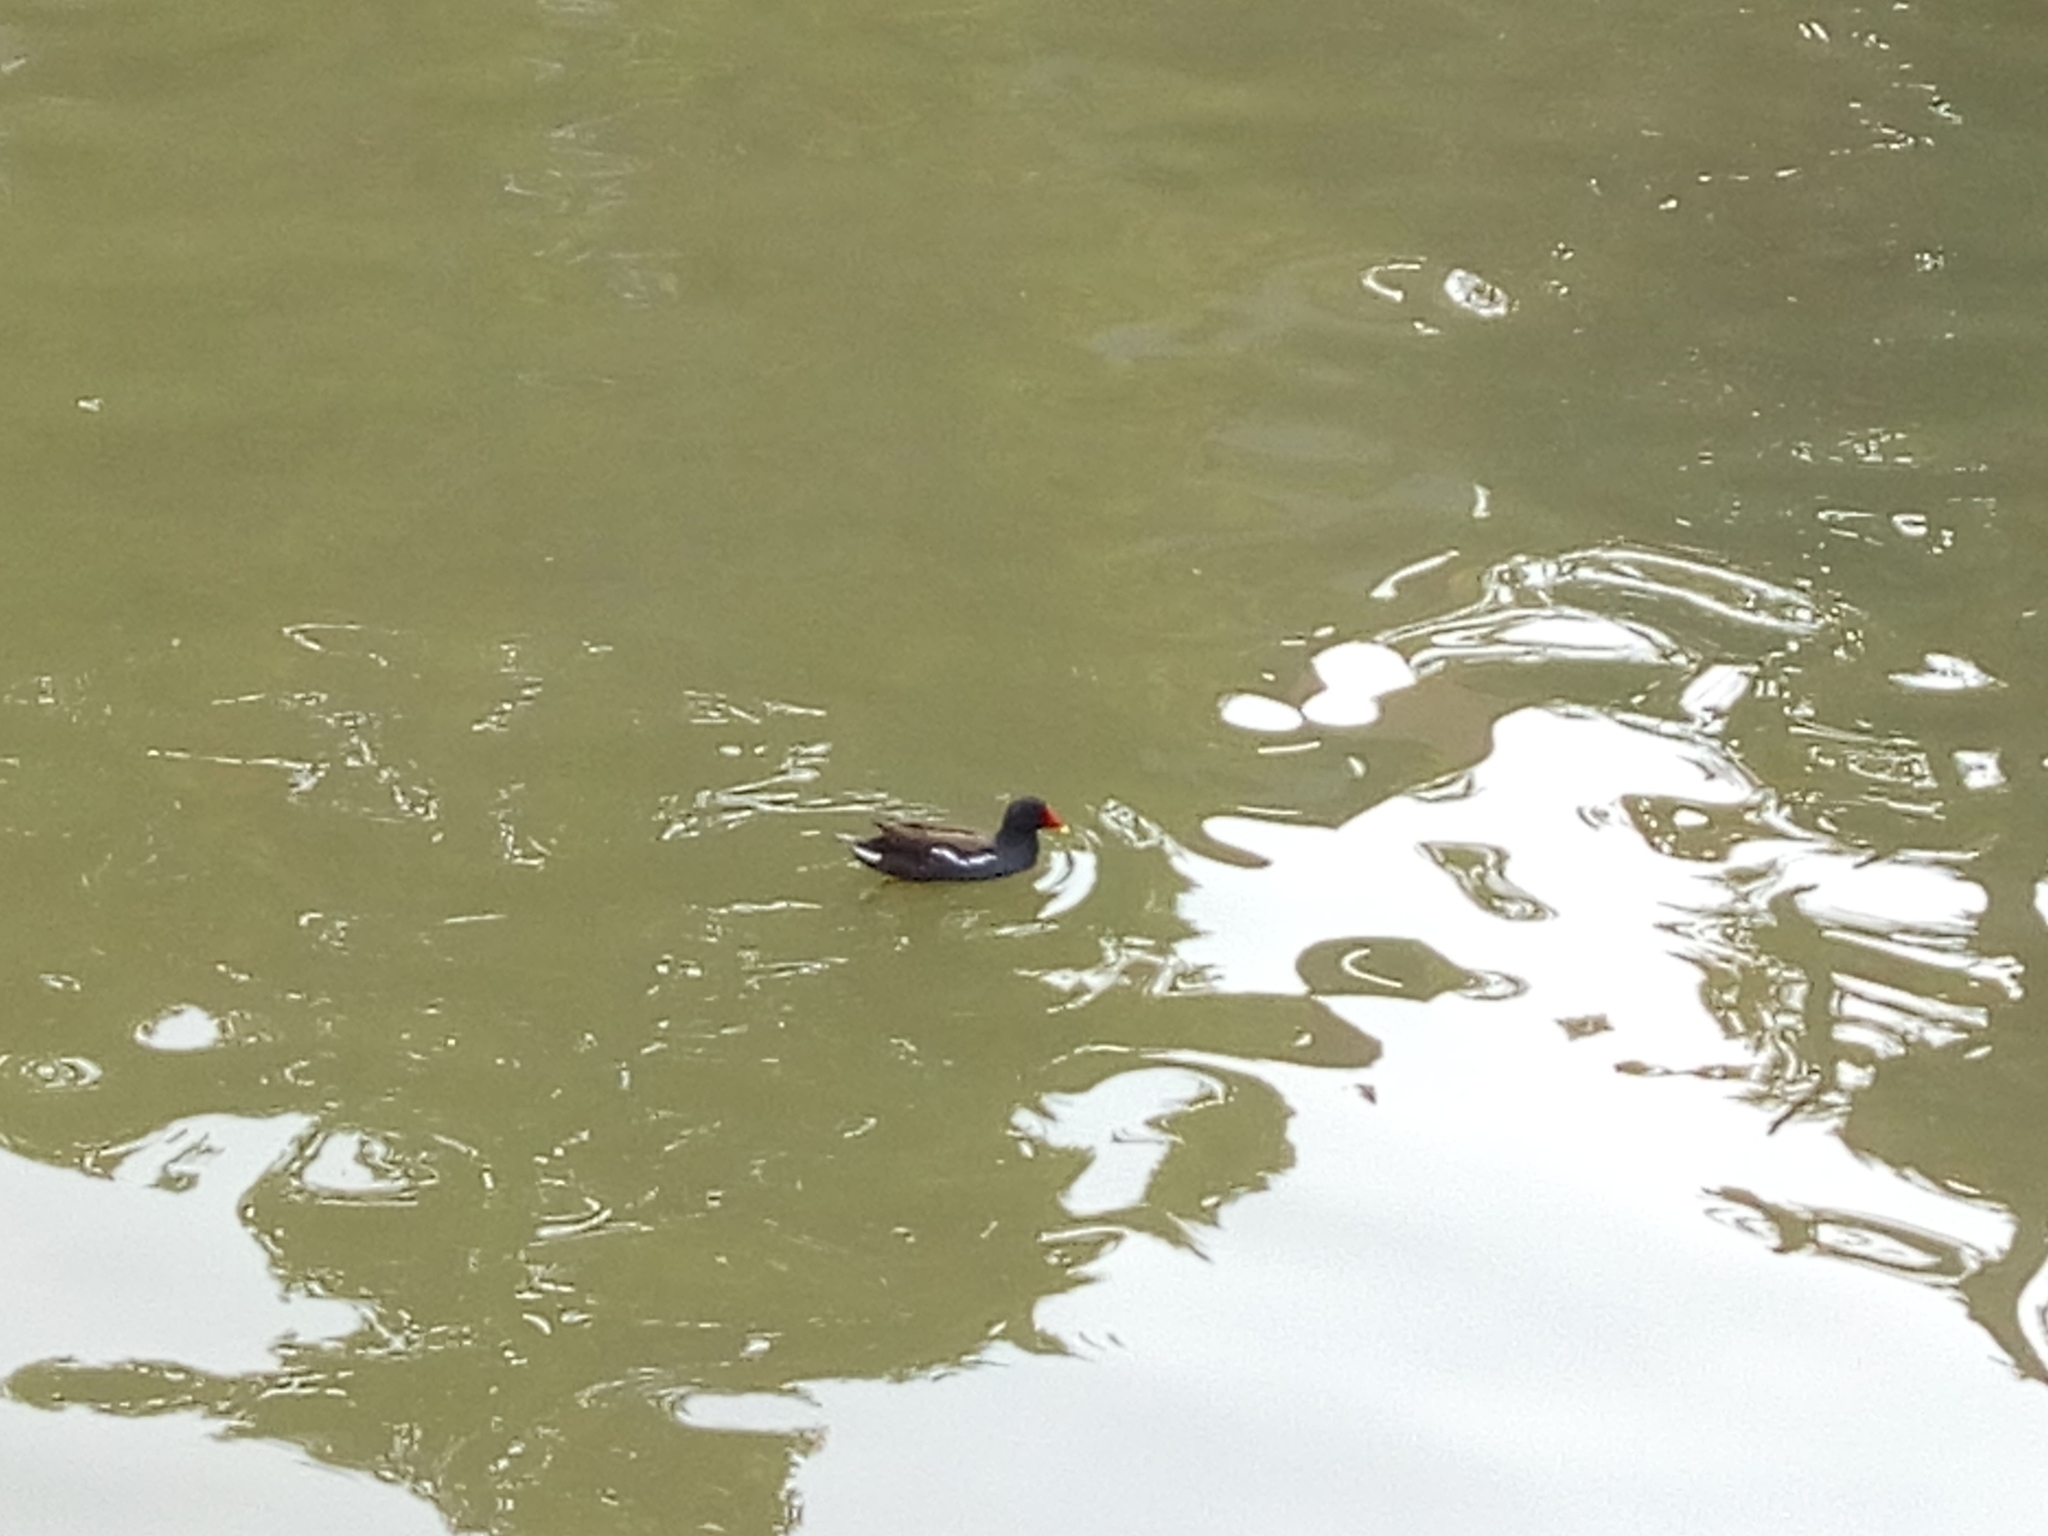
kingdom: Animalia
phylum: Chordata
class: Aves
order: Gruiformes
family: Rallidae
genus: Gallinula
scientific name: Gallinula chloropus
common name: Common moorhen
